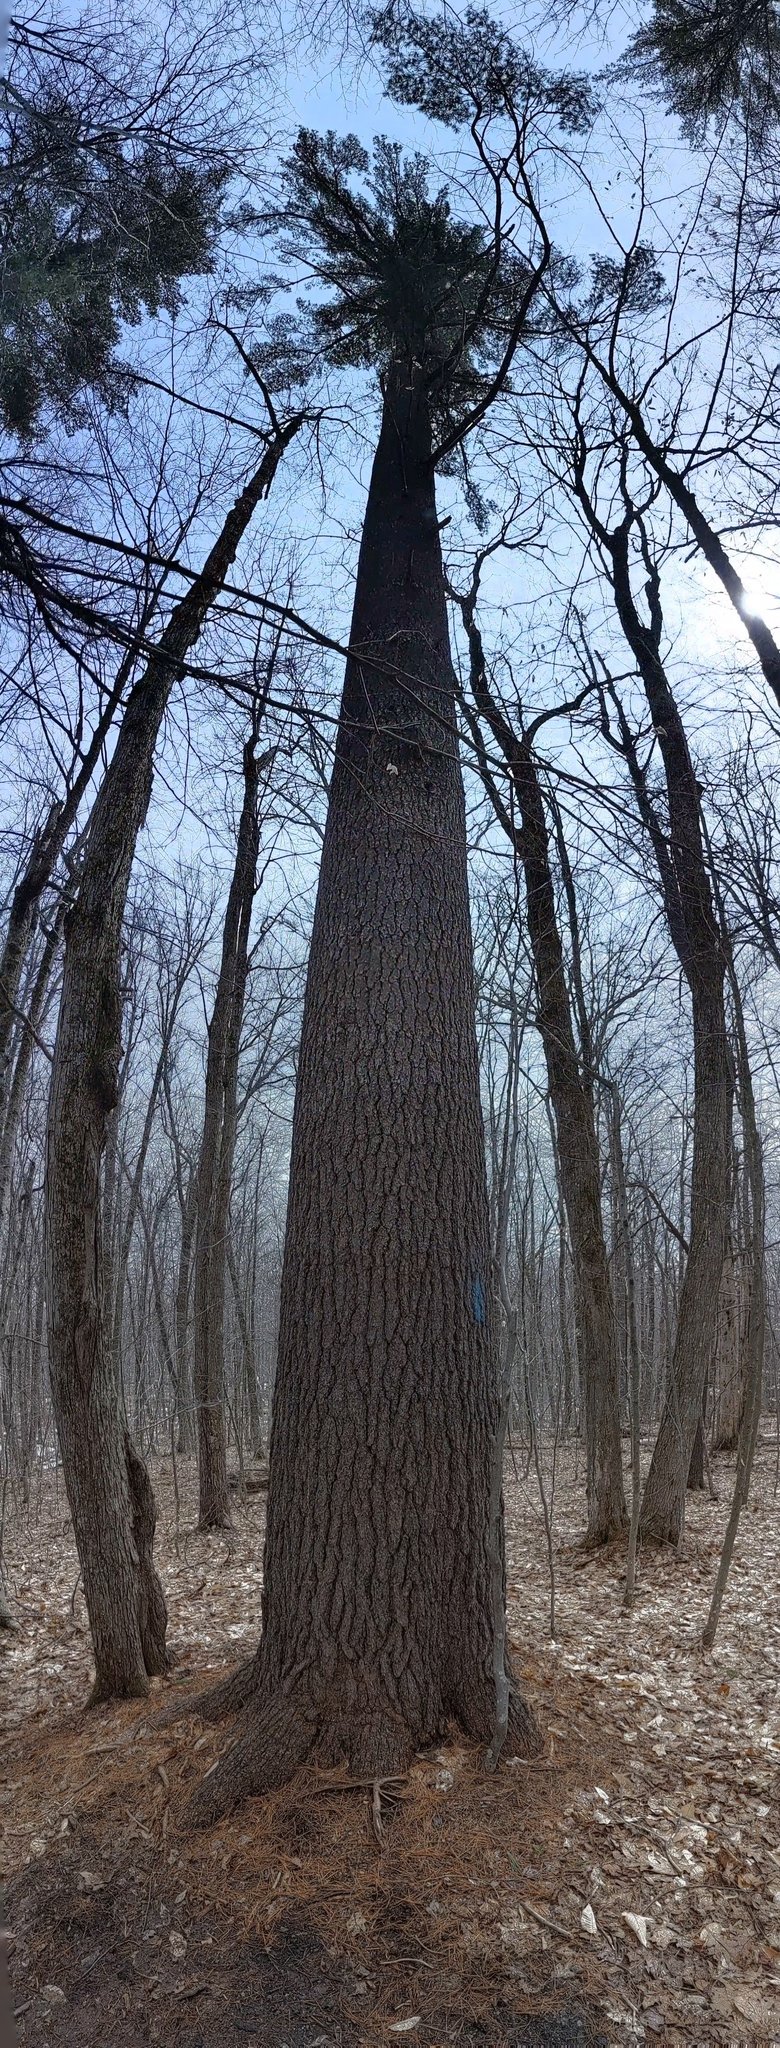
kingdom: Plantae
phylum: Tracheophyta
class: Pinopsida
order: Pinales
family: Pinaceae
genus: Pinus
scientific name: Pinus strobus
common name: Weymouth pine
